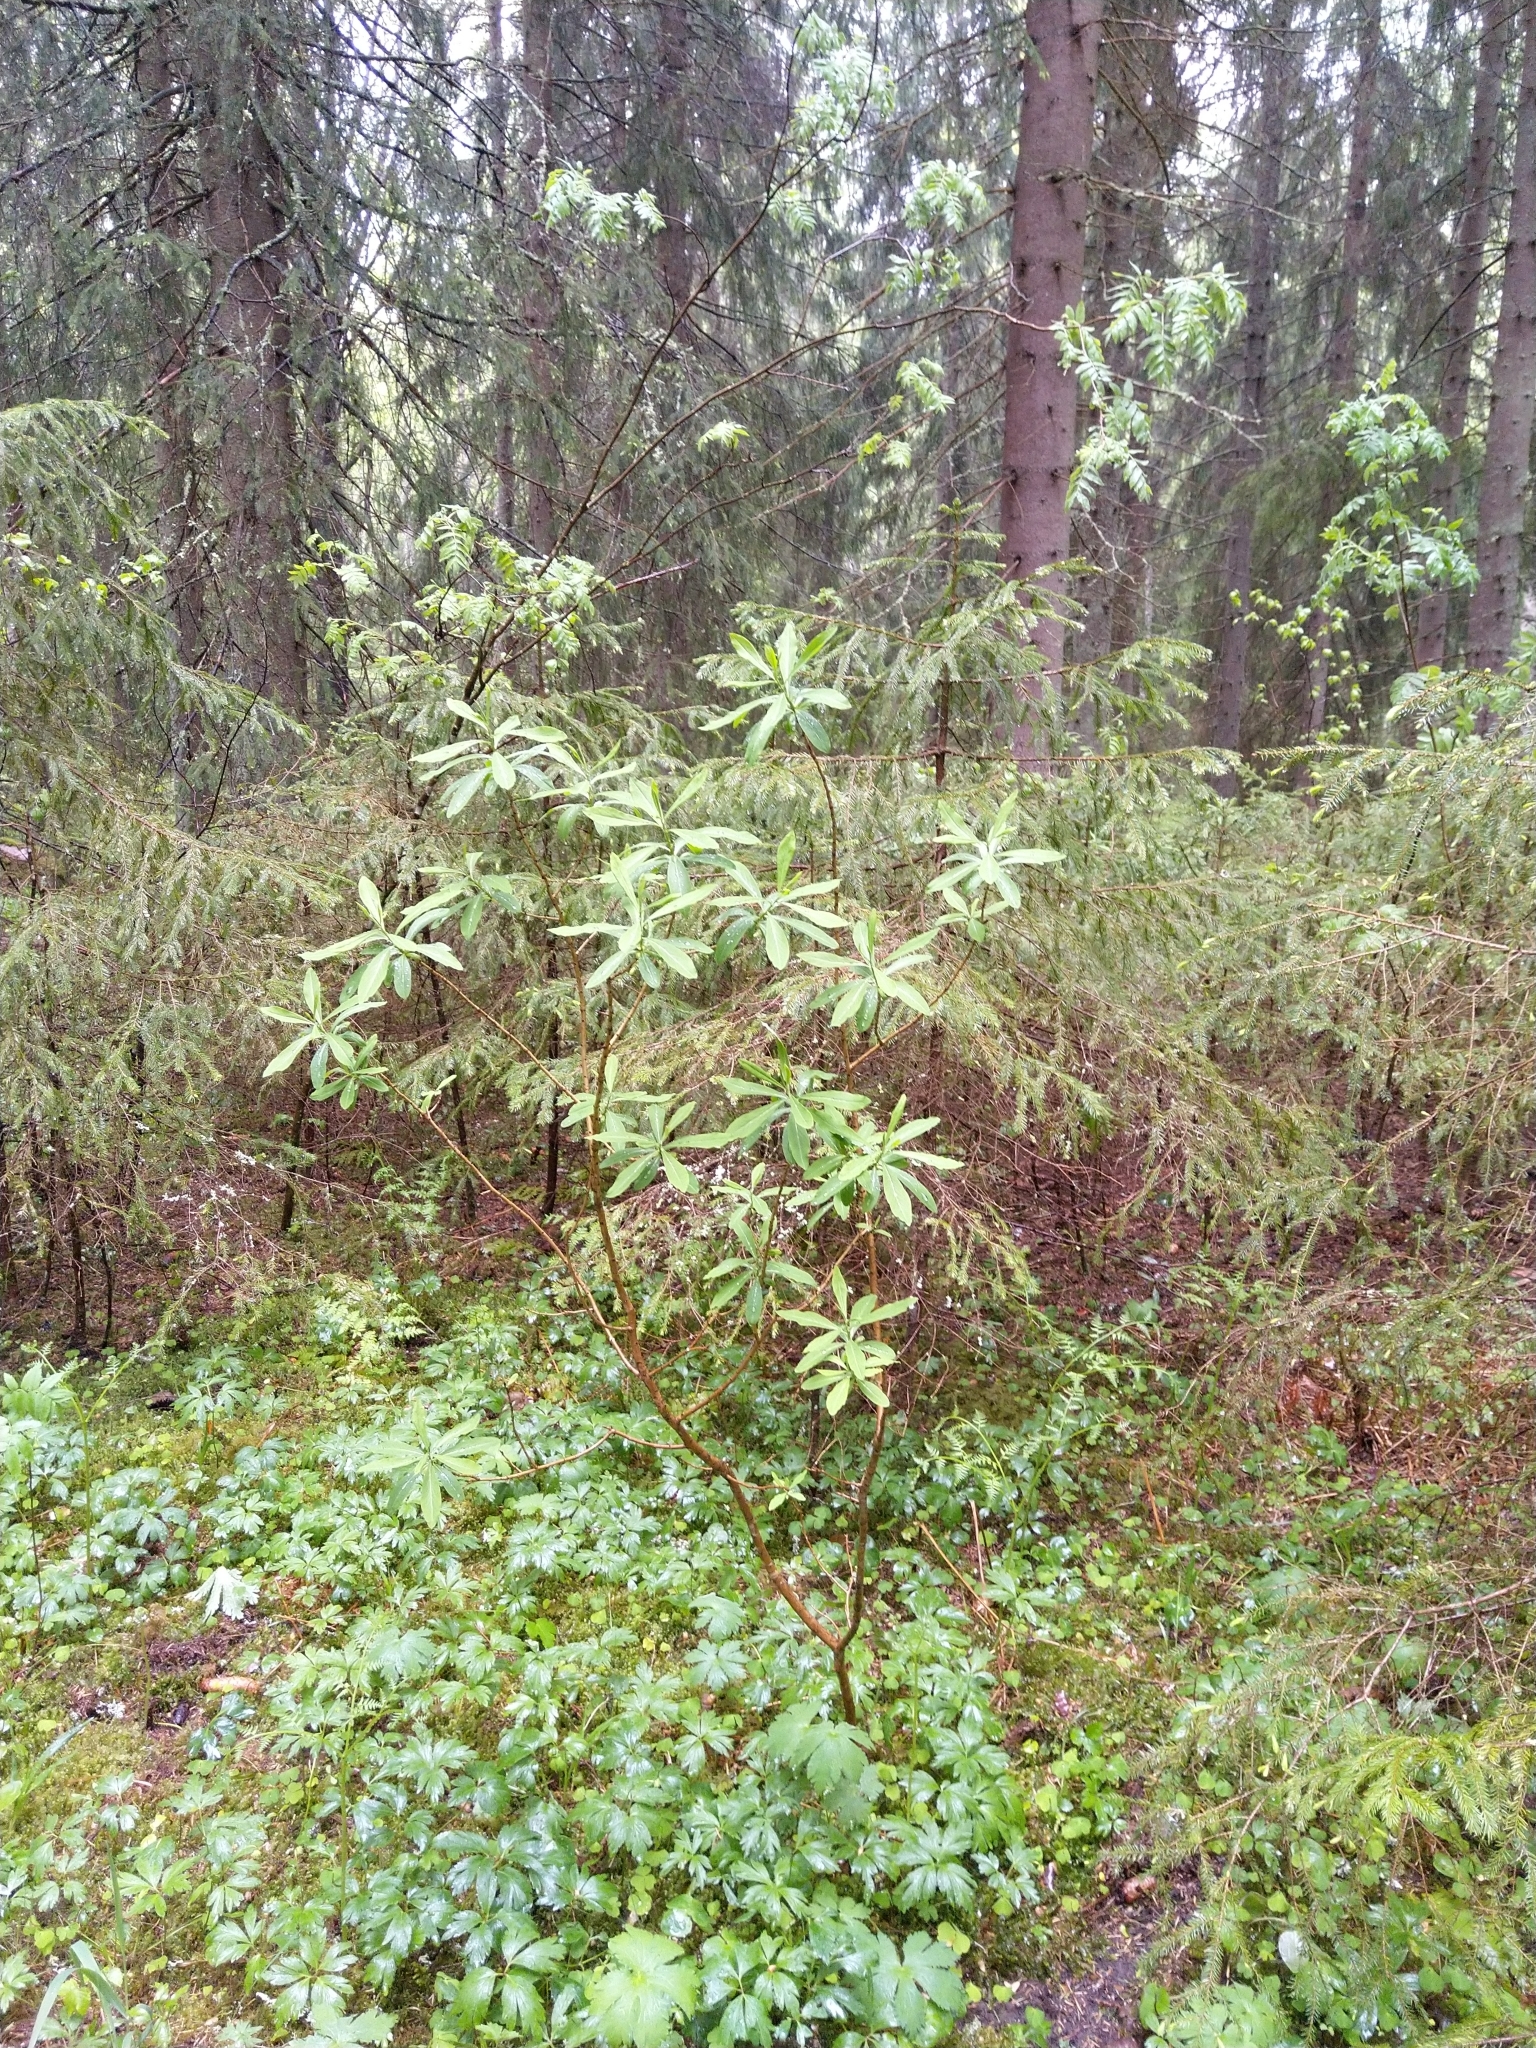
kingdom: Plantae
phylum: Tracheophyta
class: Magnoliopsida
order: Malvales
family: Thymelaeaceae
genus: Daphne
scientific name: Daphne mezereum
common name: Mezereon
